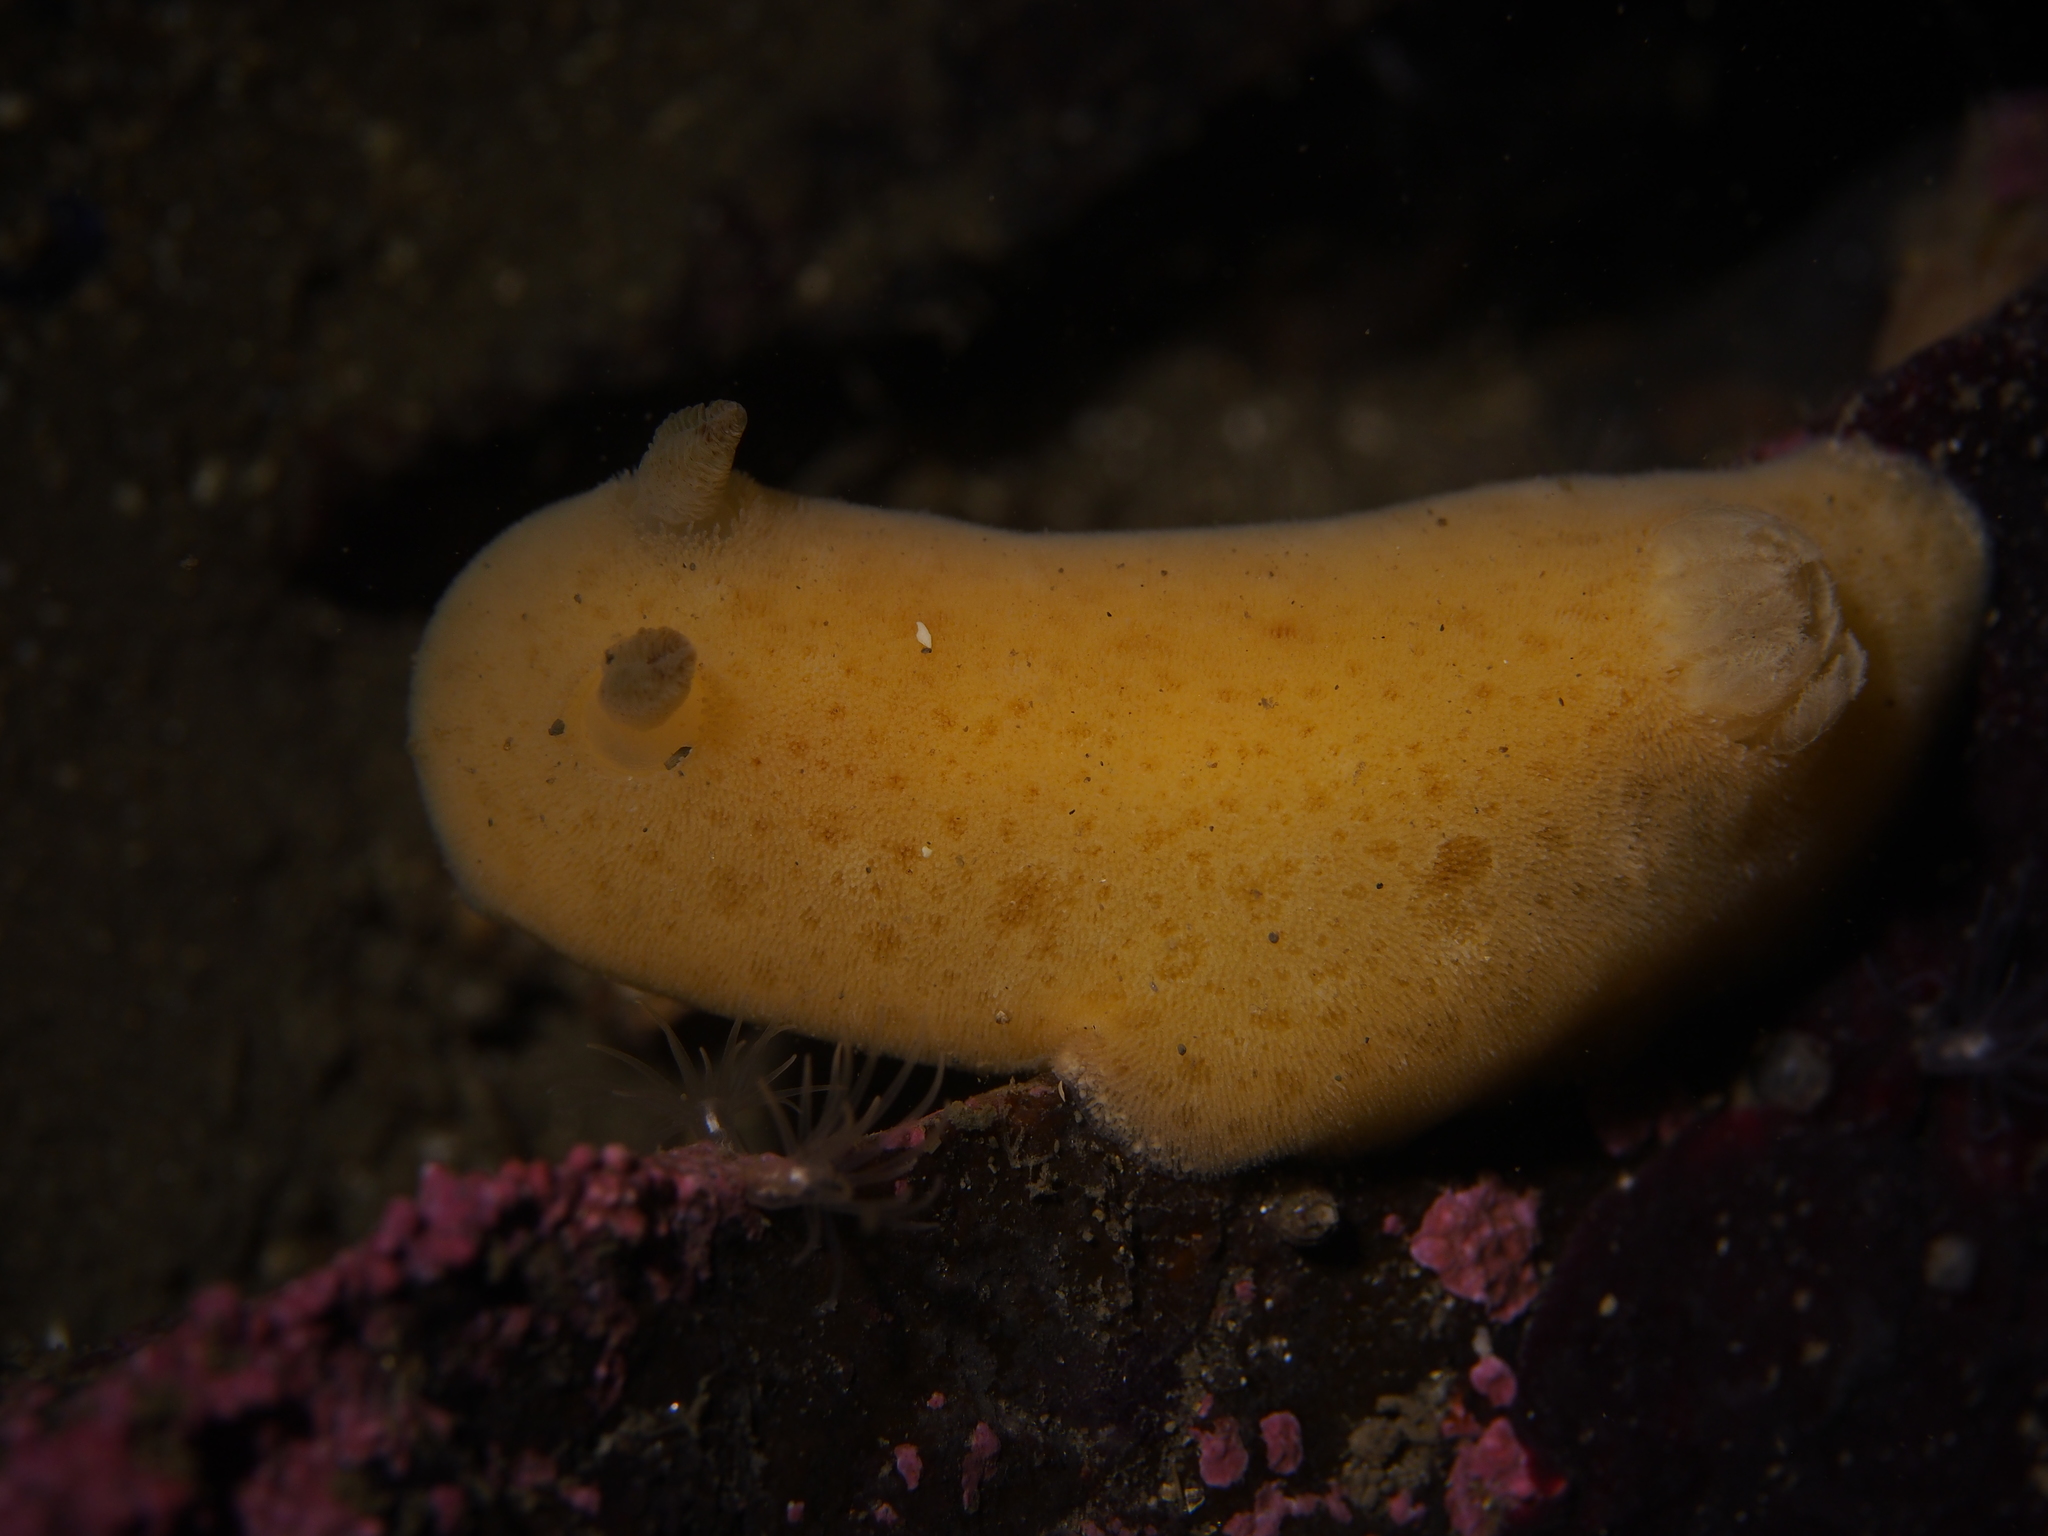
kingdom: Animalia
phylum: Mollusca
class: Gastropoda
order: Nudibranchia
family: Discodorididae
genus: Jorunna
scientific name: Jorunna tomentosa
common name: Grey sea slug
